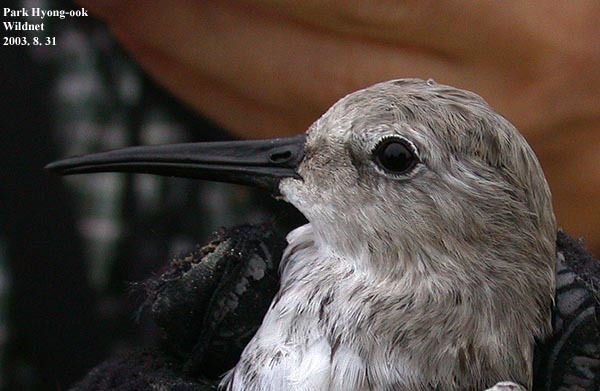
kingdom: Animalia
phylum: Chordata
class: Aves
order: Charadriiformes
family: Scolopacidae
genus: Calidris
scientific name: Calidris alpina
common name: Dunlin
